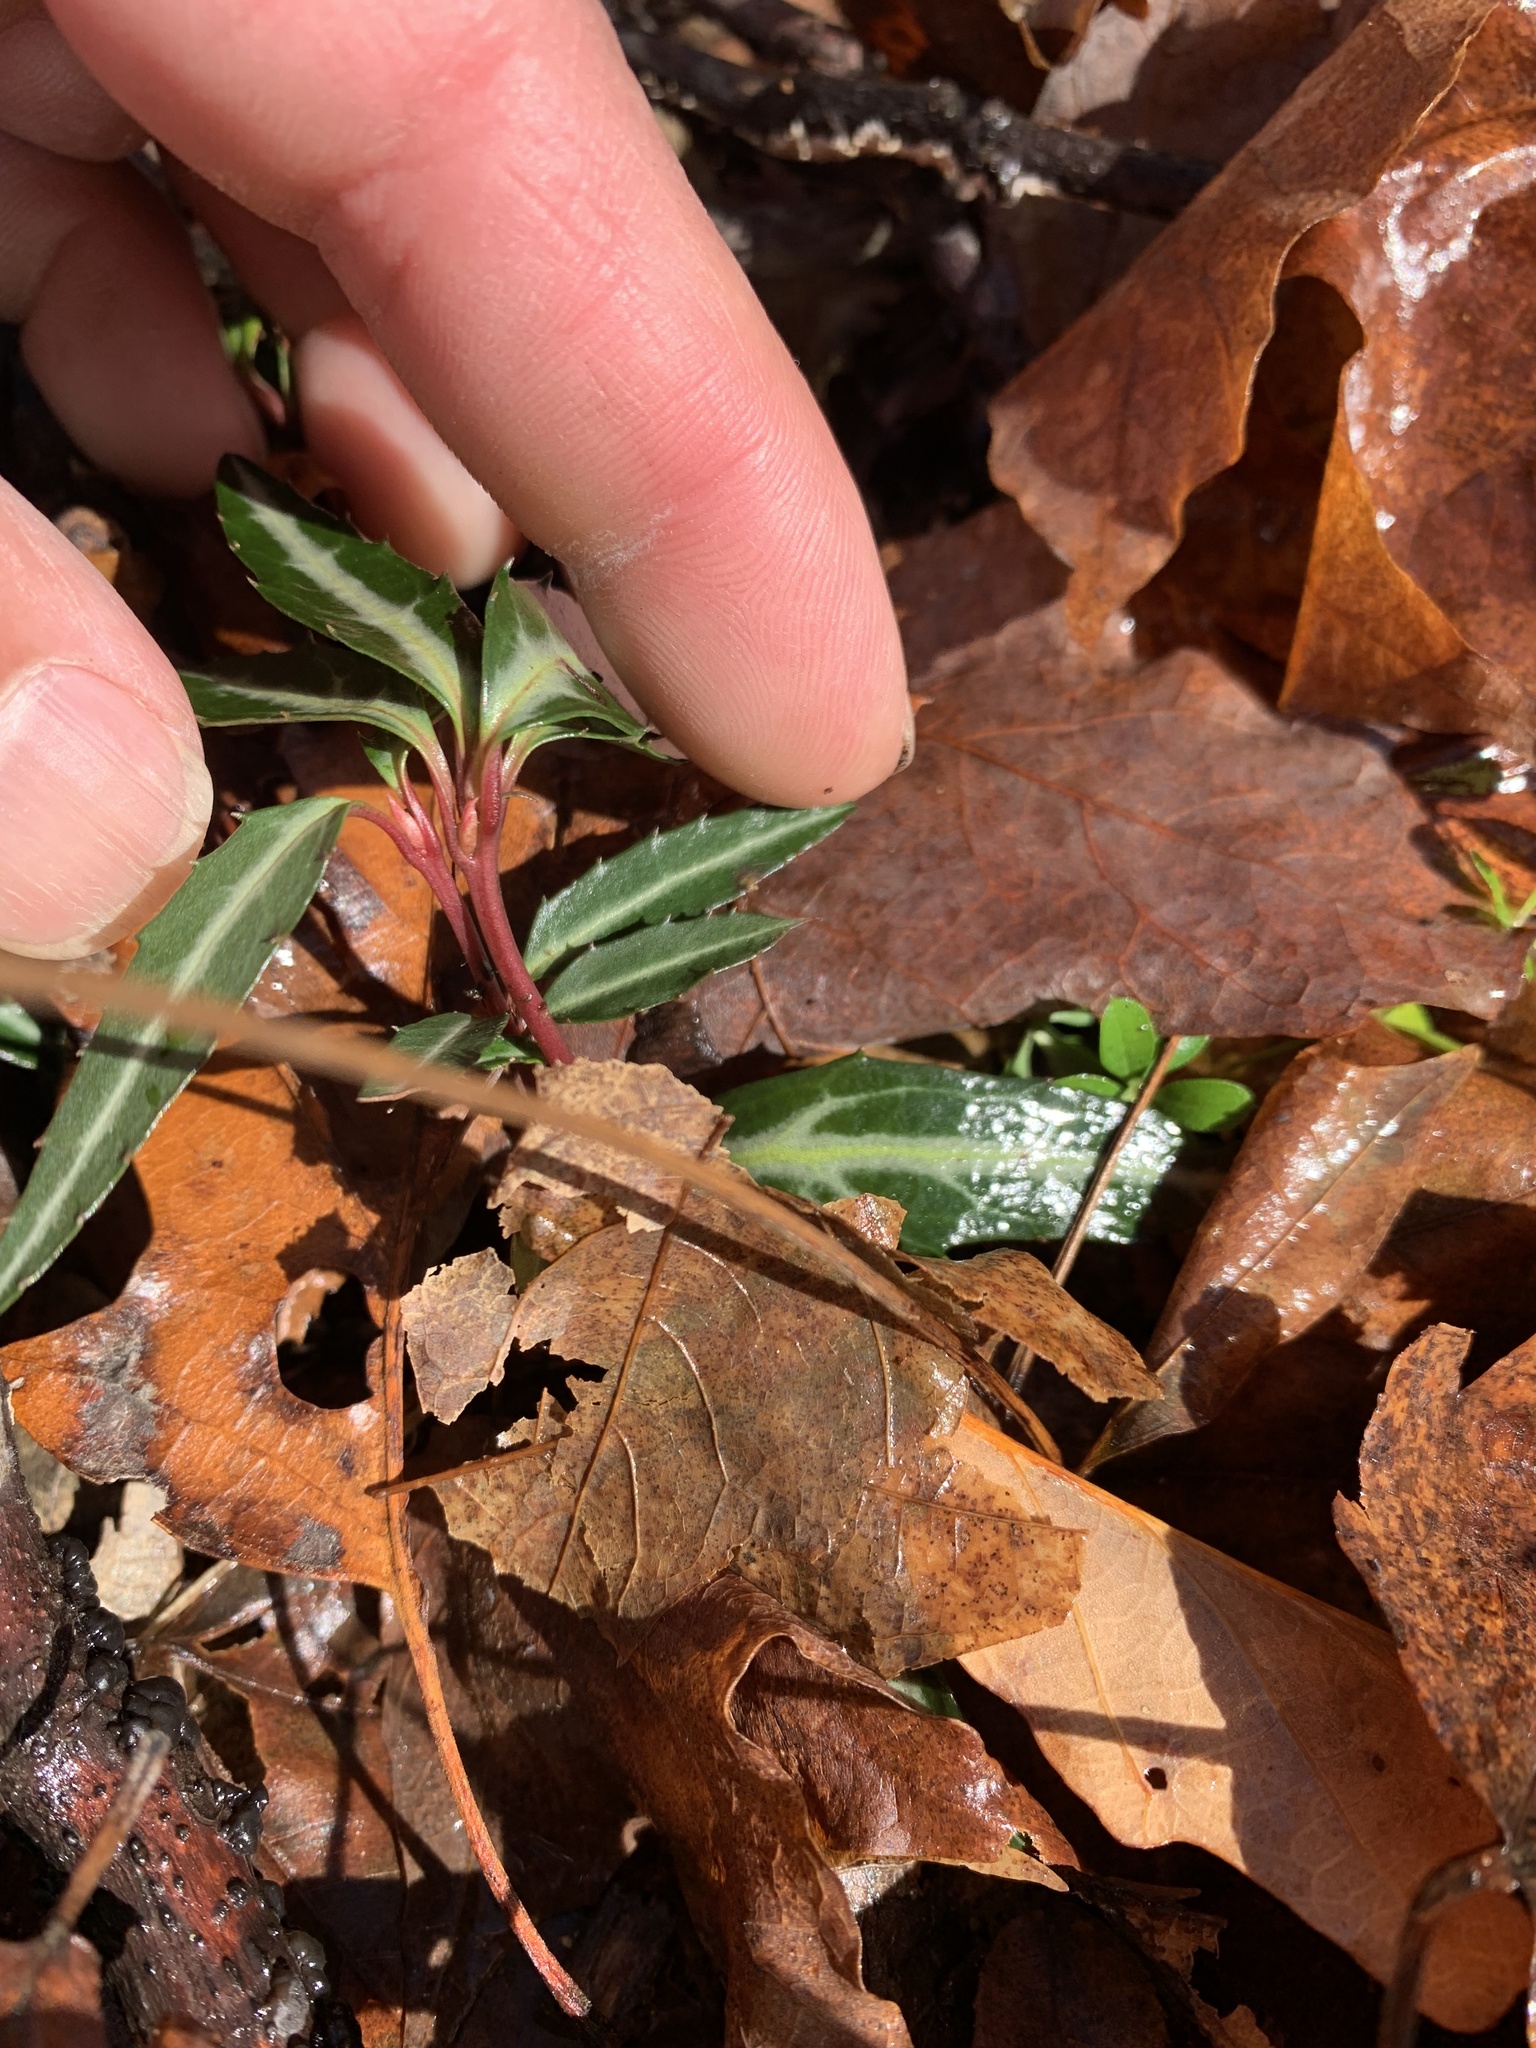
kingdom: Plantae
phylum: Tracheophyta
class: Magnoliopsida
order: Ericales
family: Ericaceae
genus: Chimaphila
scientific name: Chimaphila maculata
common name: Spotted pipsissewa
